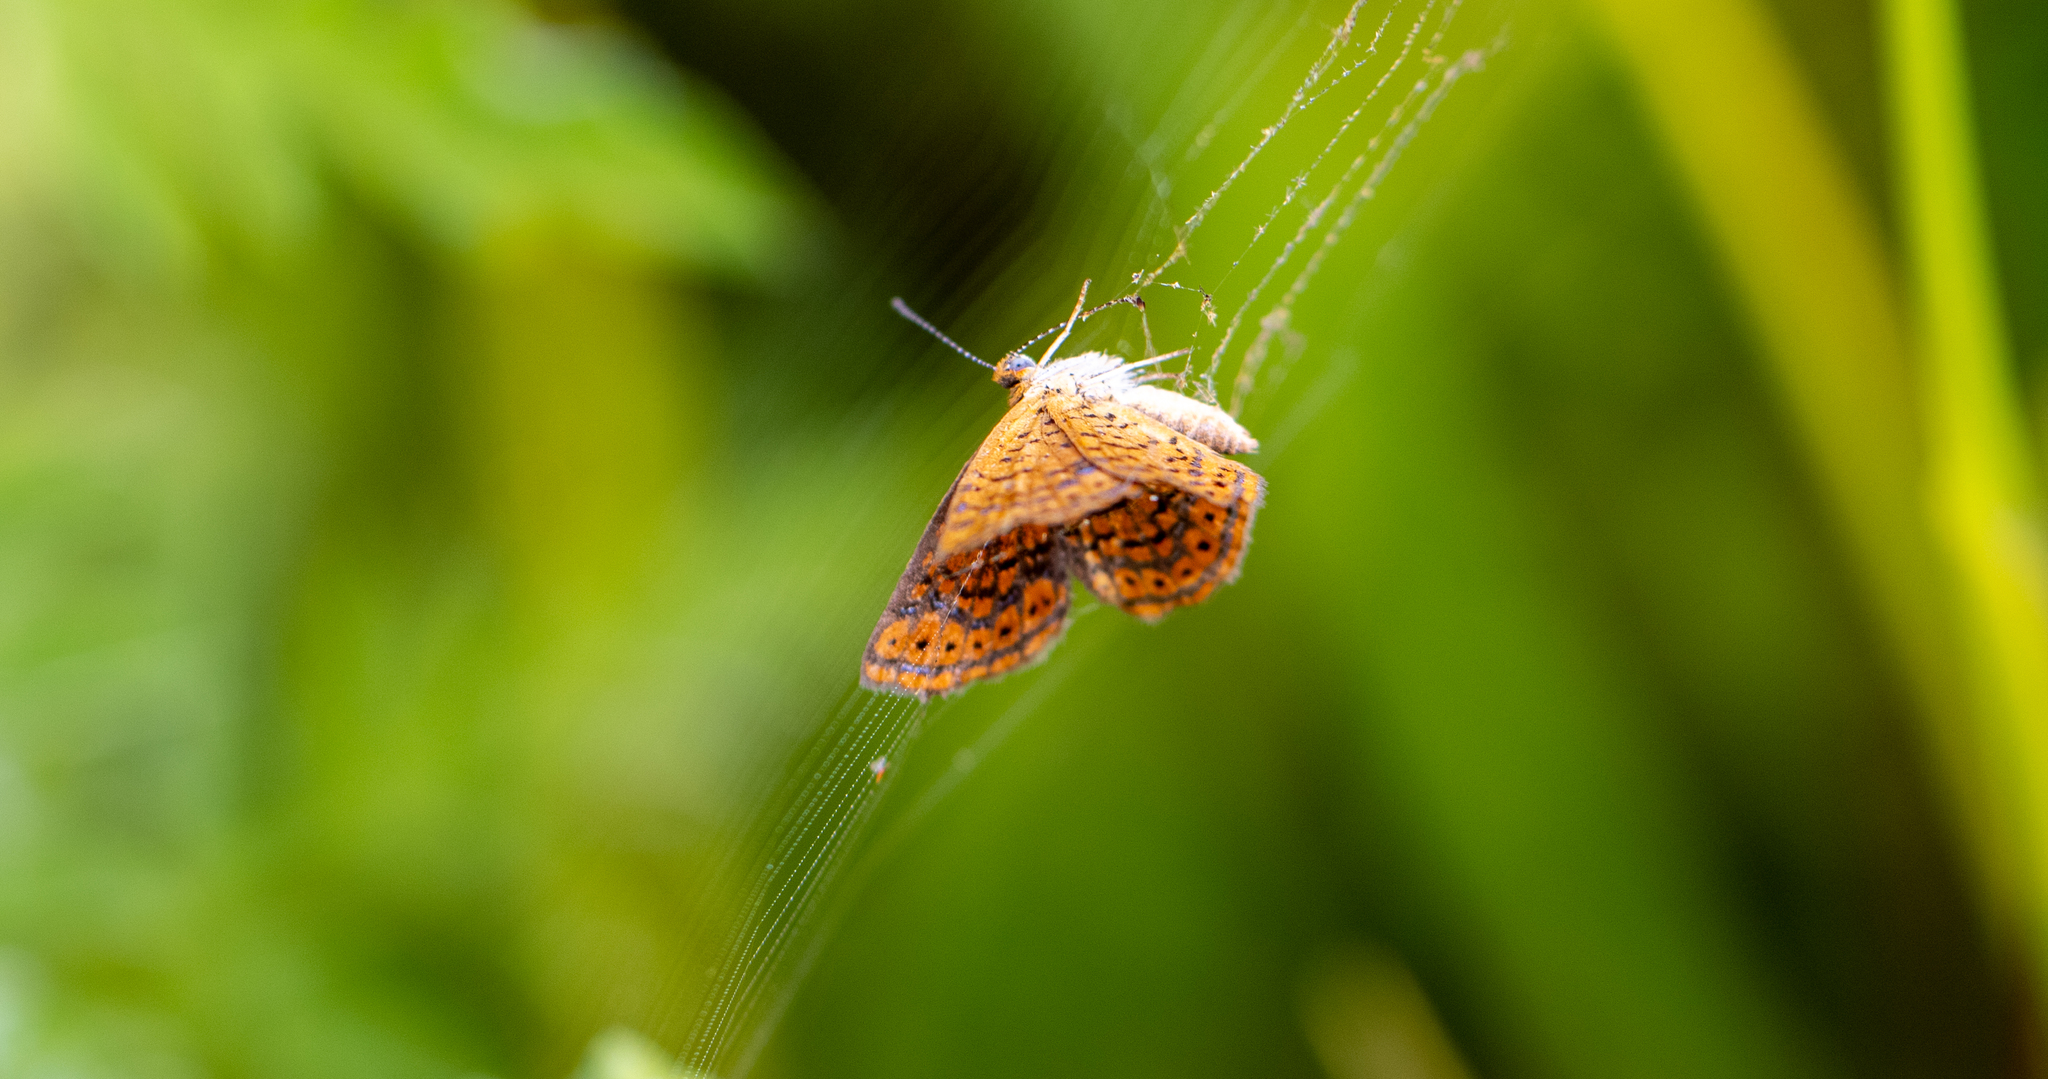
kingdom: Animalia
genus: Calephelis
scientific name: Calephelis virginiensis
